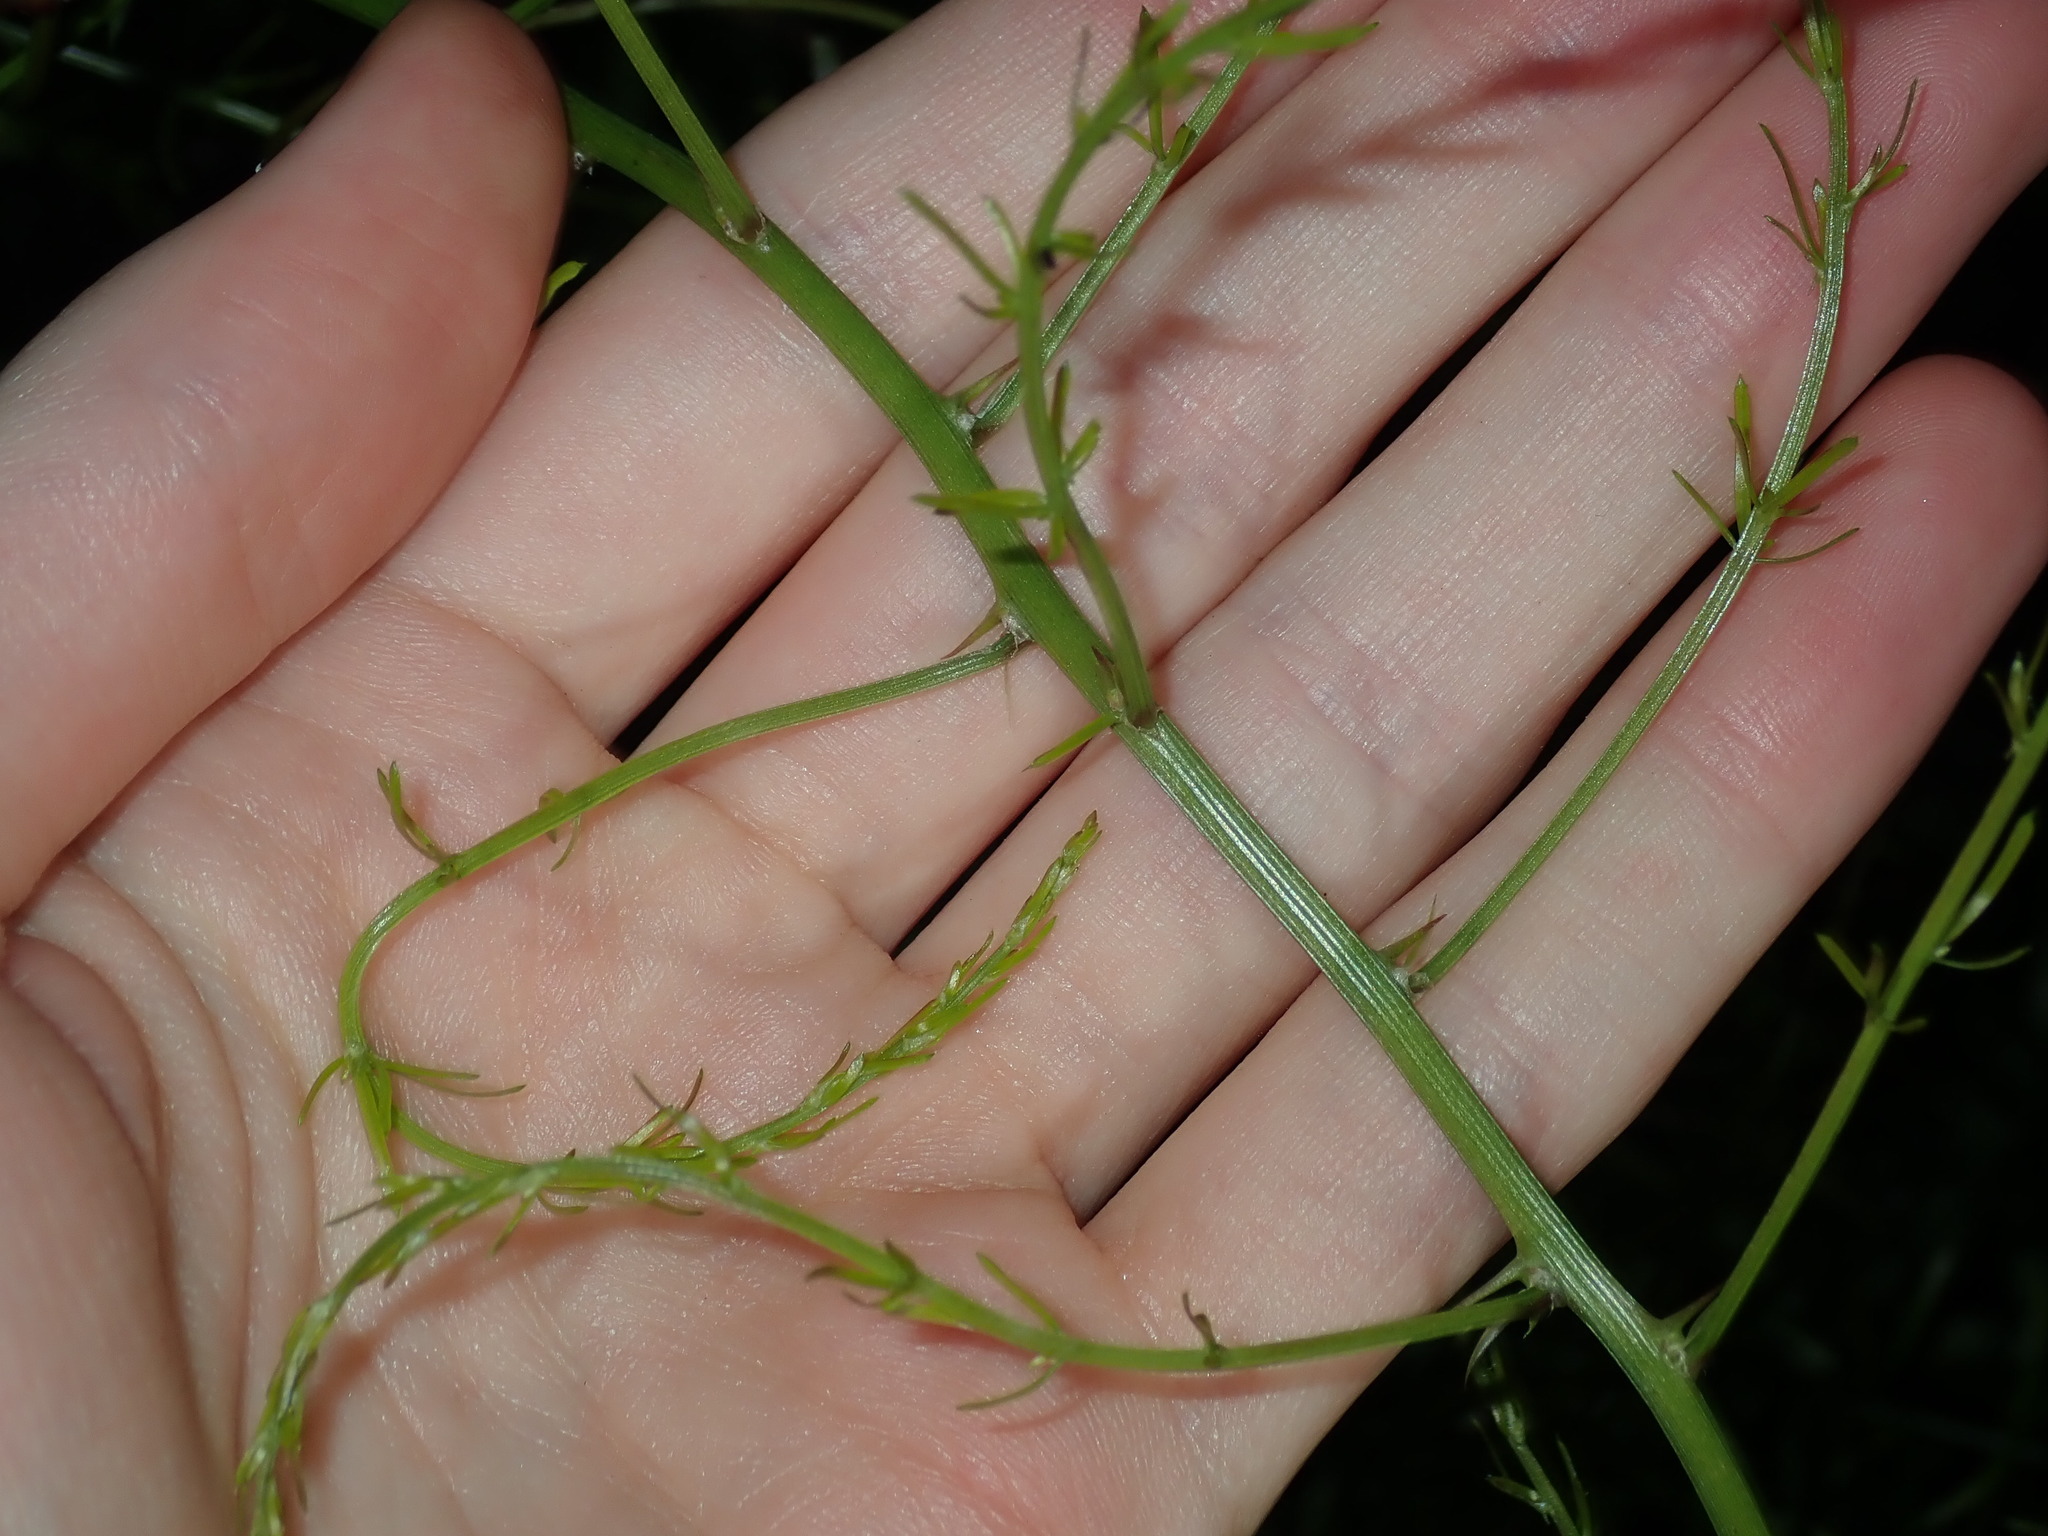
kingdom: Plantae
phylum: Tracheophyta
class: Liliopsida
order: Asparagales
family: Asparagaceae
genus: Asparagus
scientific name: Asparagus aethiopicus
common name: Sprenger's asparagus fern
